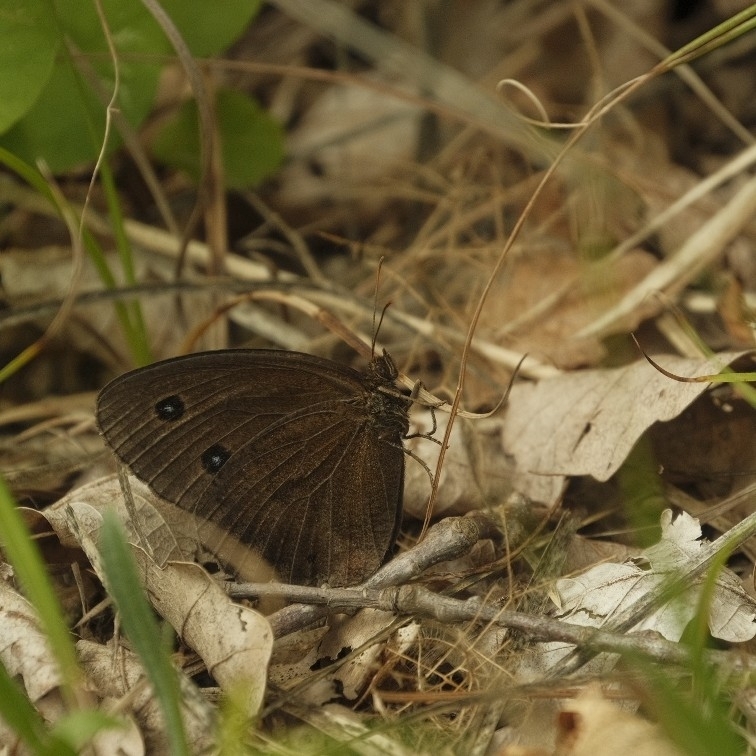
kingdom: Animalia
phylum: Arthropoda
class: Insecta
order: Lepidoptera
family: Nymphalidae
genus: Minois
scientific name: Minois dryas
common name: Dryad
